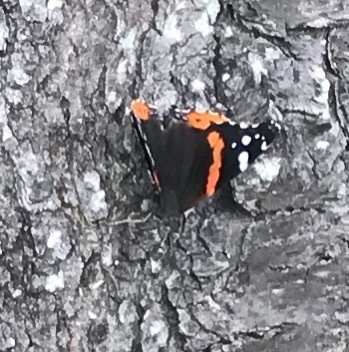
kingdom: Animalia
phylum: Arthropoda
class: Insecta
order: Lepidoptera
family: Nymphalidae
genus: Vanessa
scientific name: Vanessa atalanta
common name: Red admiral
